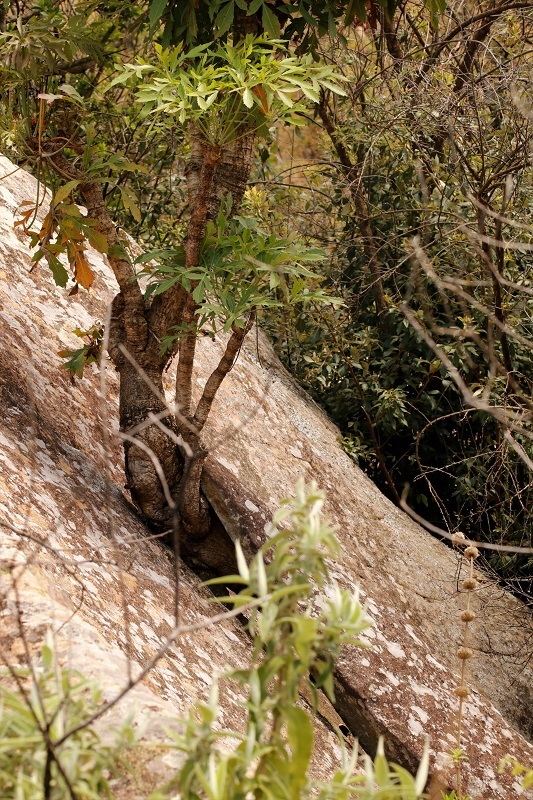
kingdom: Plantae
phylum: Tracheophyta
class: Magnoliopsida
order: Apiales
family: Araliaceae
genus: Cussonia
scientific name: Cussonia paniculata
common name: Cabbagetree
